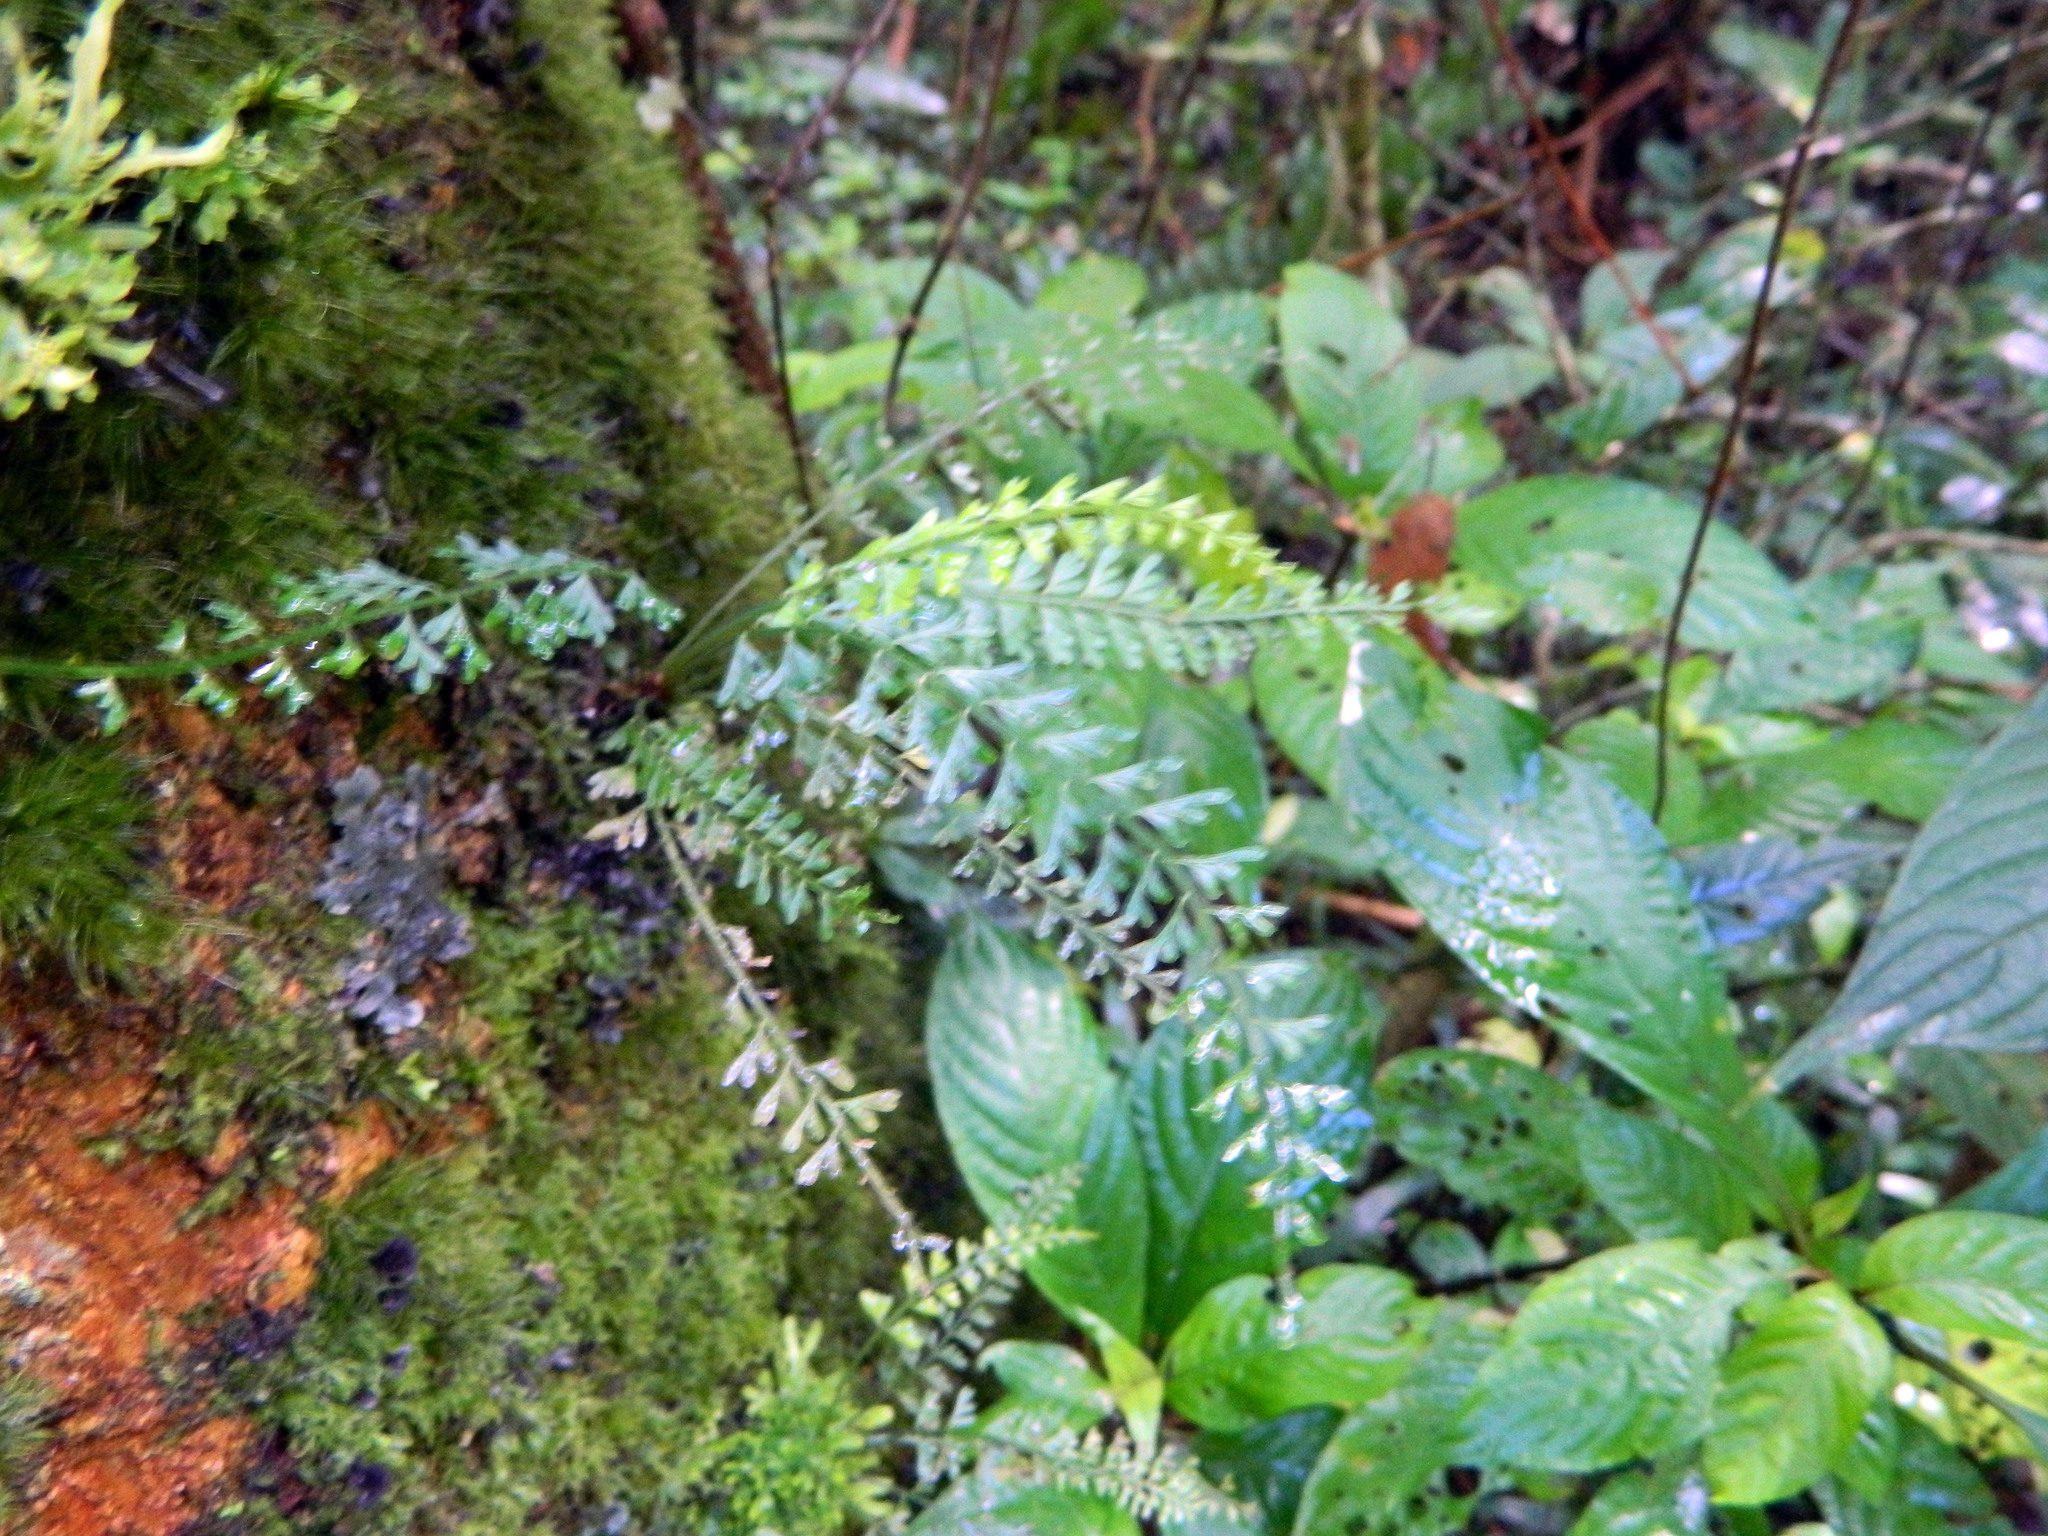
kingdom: Plantae
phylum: Tracheophyta
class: Polypodiopsida
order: Polypodiales
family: Aspleniaceae
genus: Asplenium
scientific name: Asplenium dregeanum
